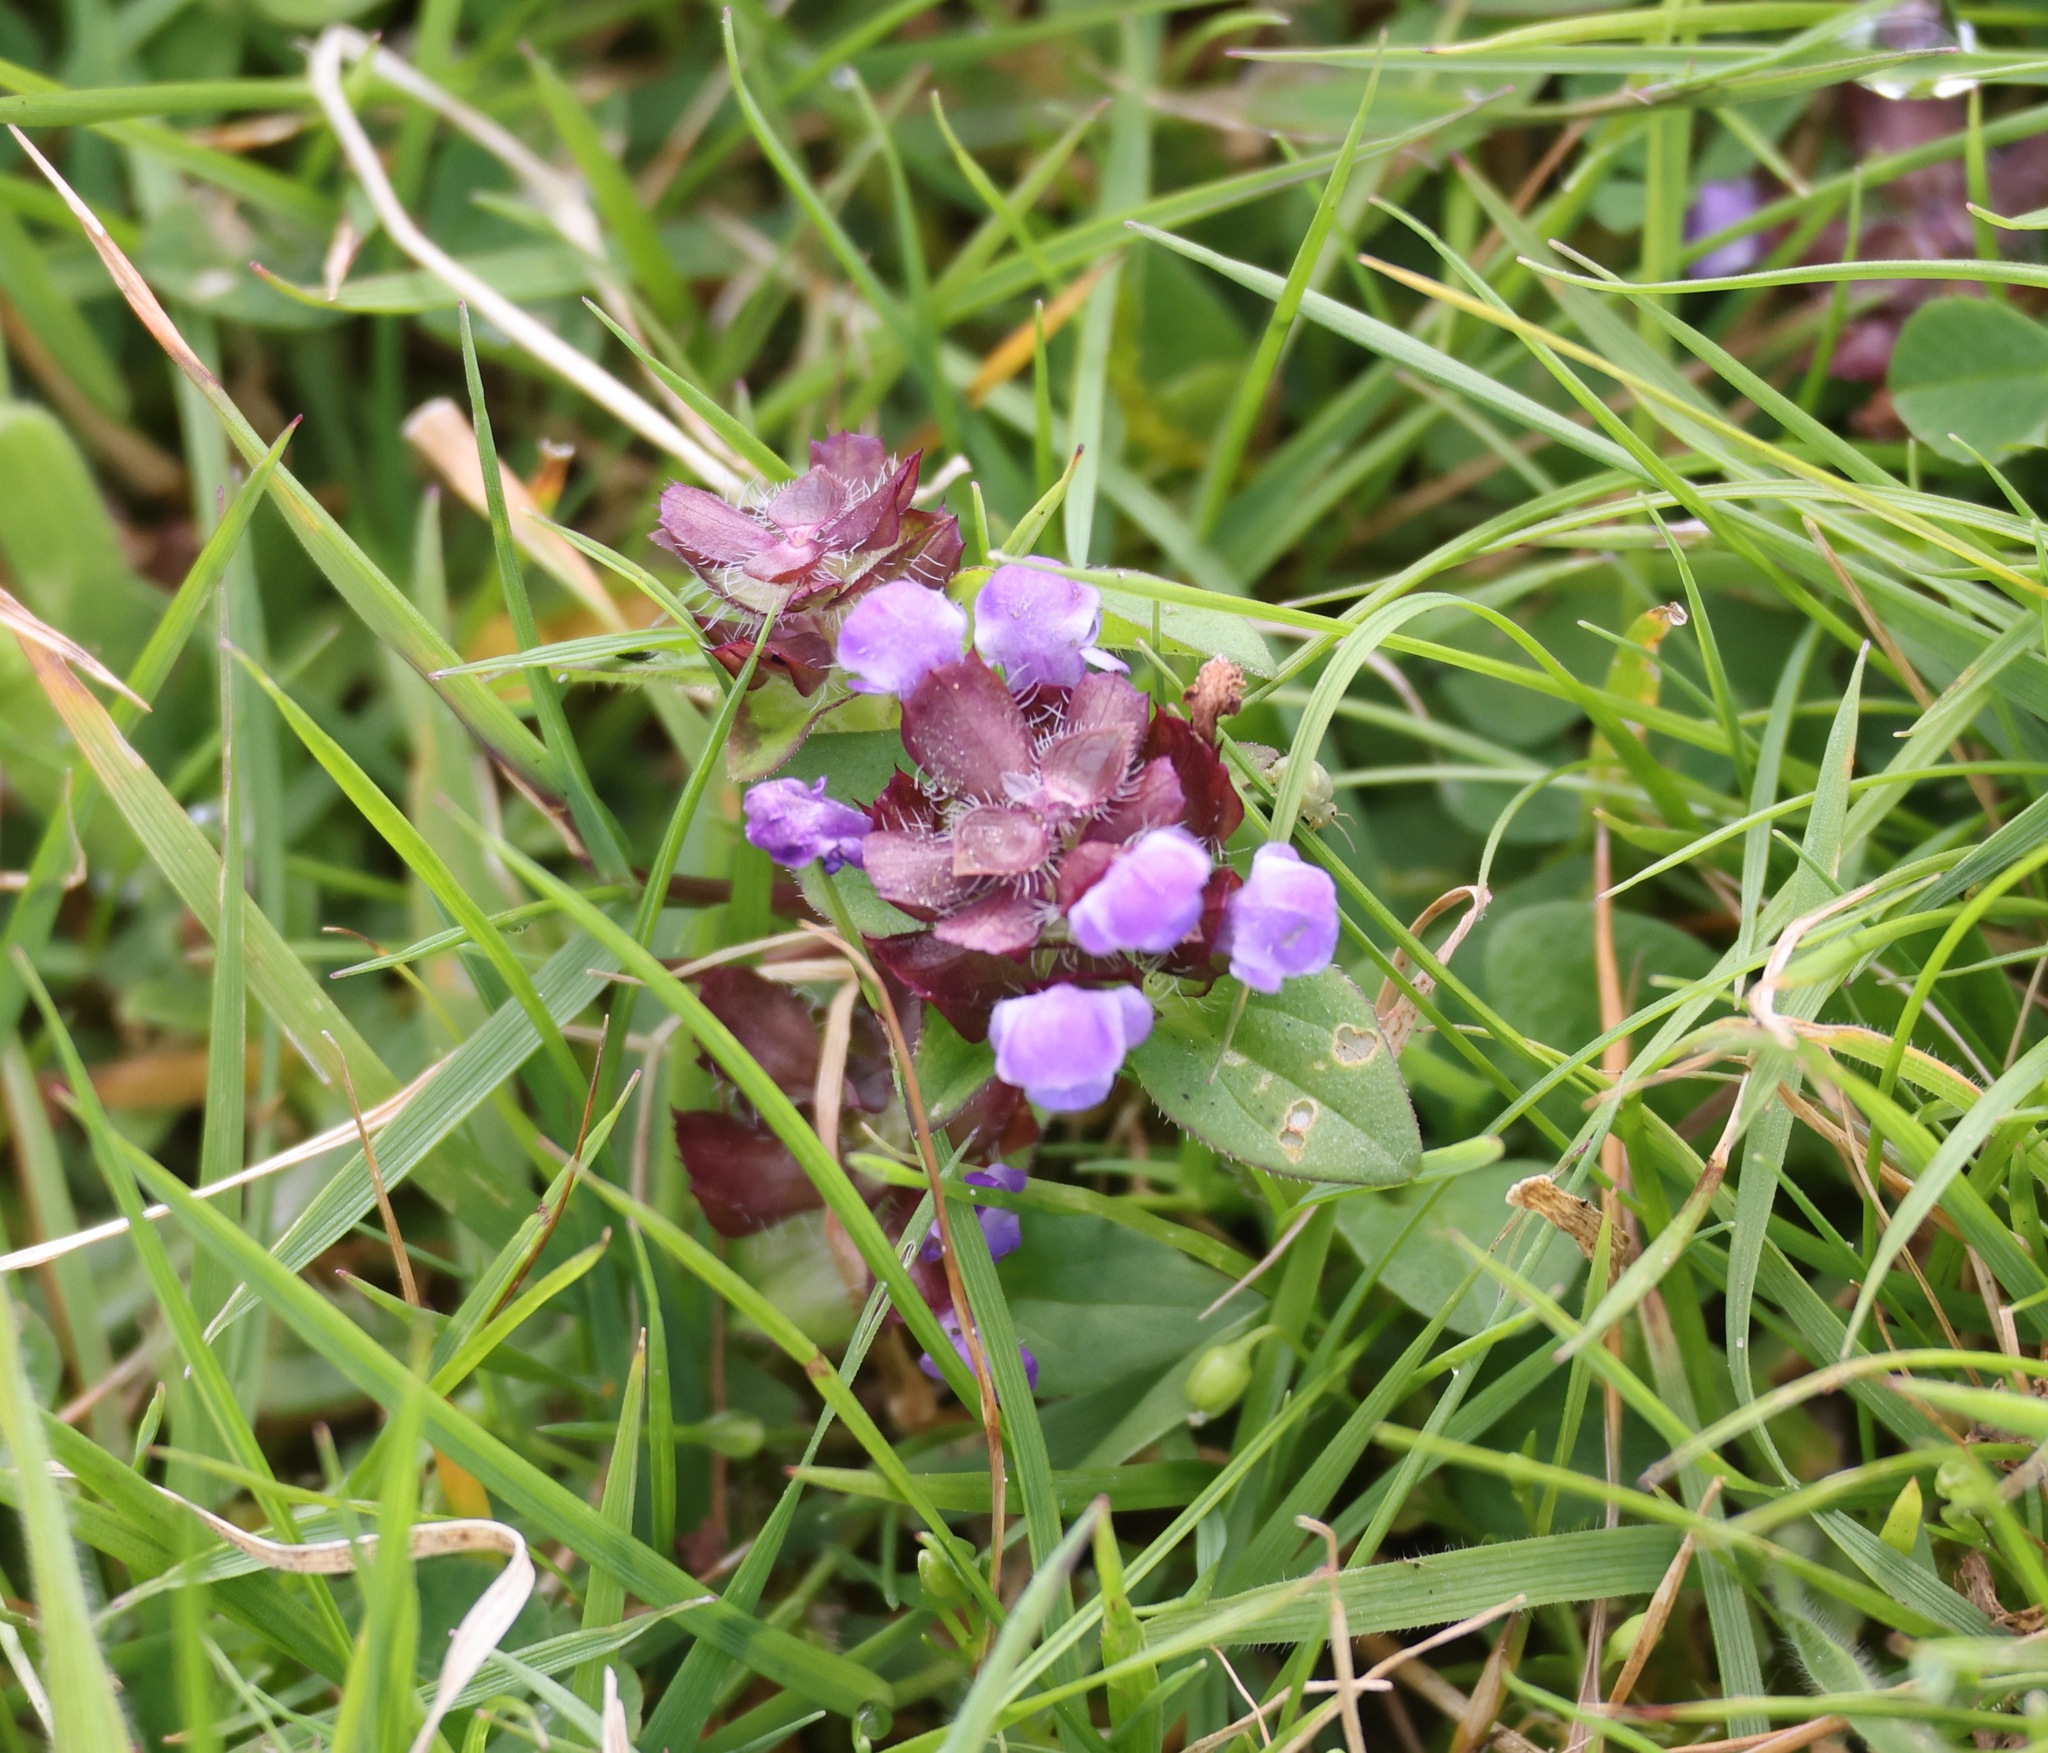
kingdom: Plantae
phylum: Tracheophyta
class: Magnoliopsida
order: Lamiales
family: Lamiaceae
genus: Prunella
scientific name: Prunella vulgaris
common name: Heal-all
